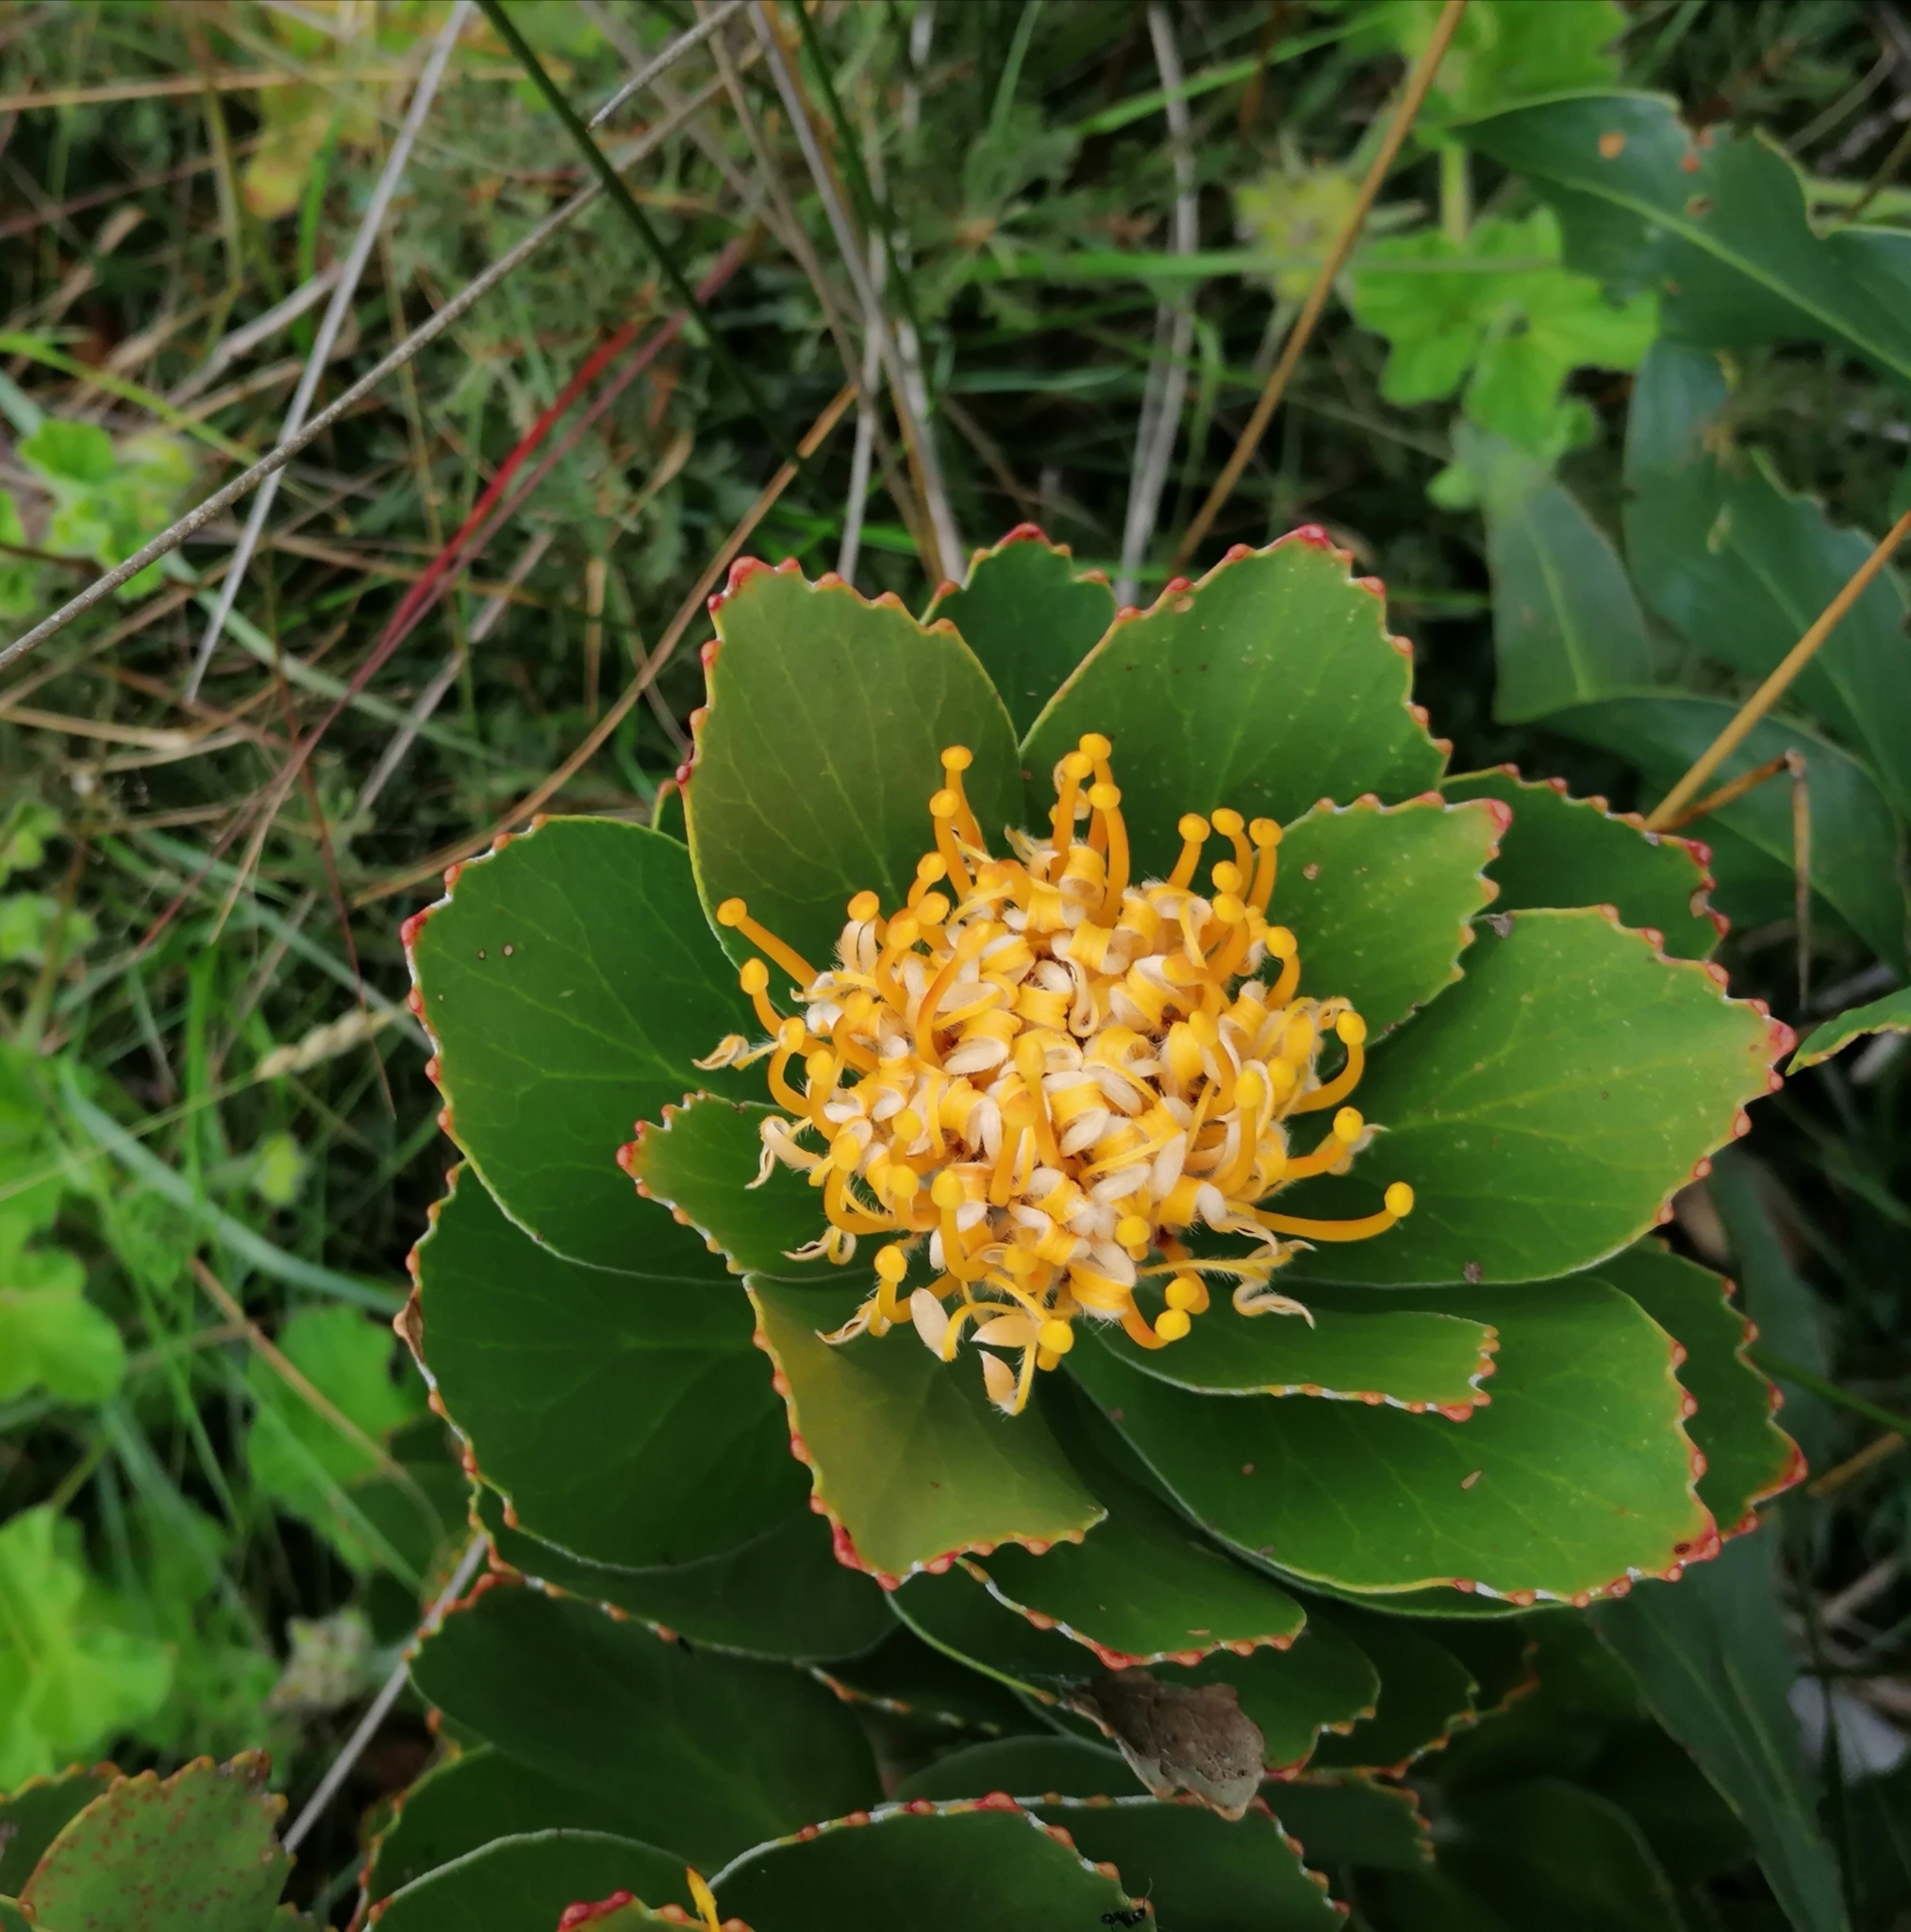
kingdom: Plantae
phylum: Tracheophyta
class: Magnoliopsida
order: Proteales
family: Proteaceae
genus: Leucospermum
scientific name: Leucospermum conocarpodendron
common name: Tree pincushion
